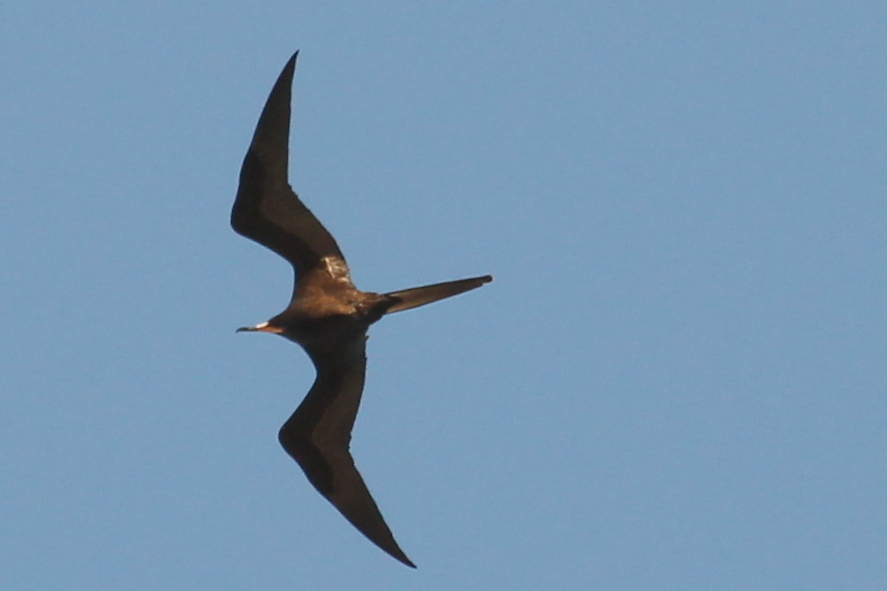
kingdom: Animalia
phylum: Chordata
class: Aves
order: Suliformes
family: Fregatidae
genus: Fregata
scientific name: Fregata magnificens
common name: Magnificent frigatebird
